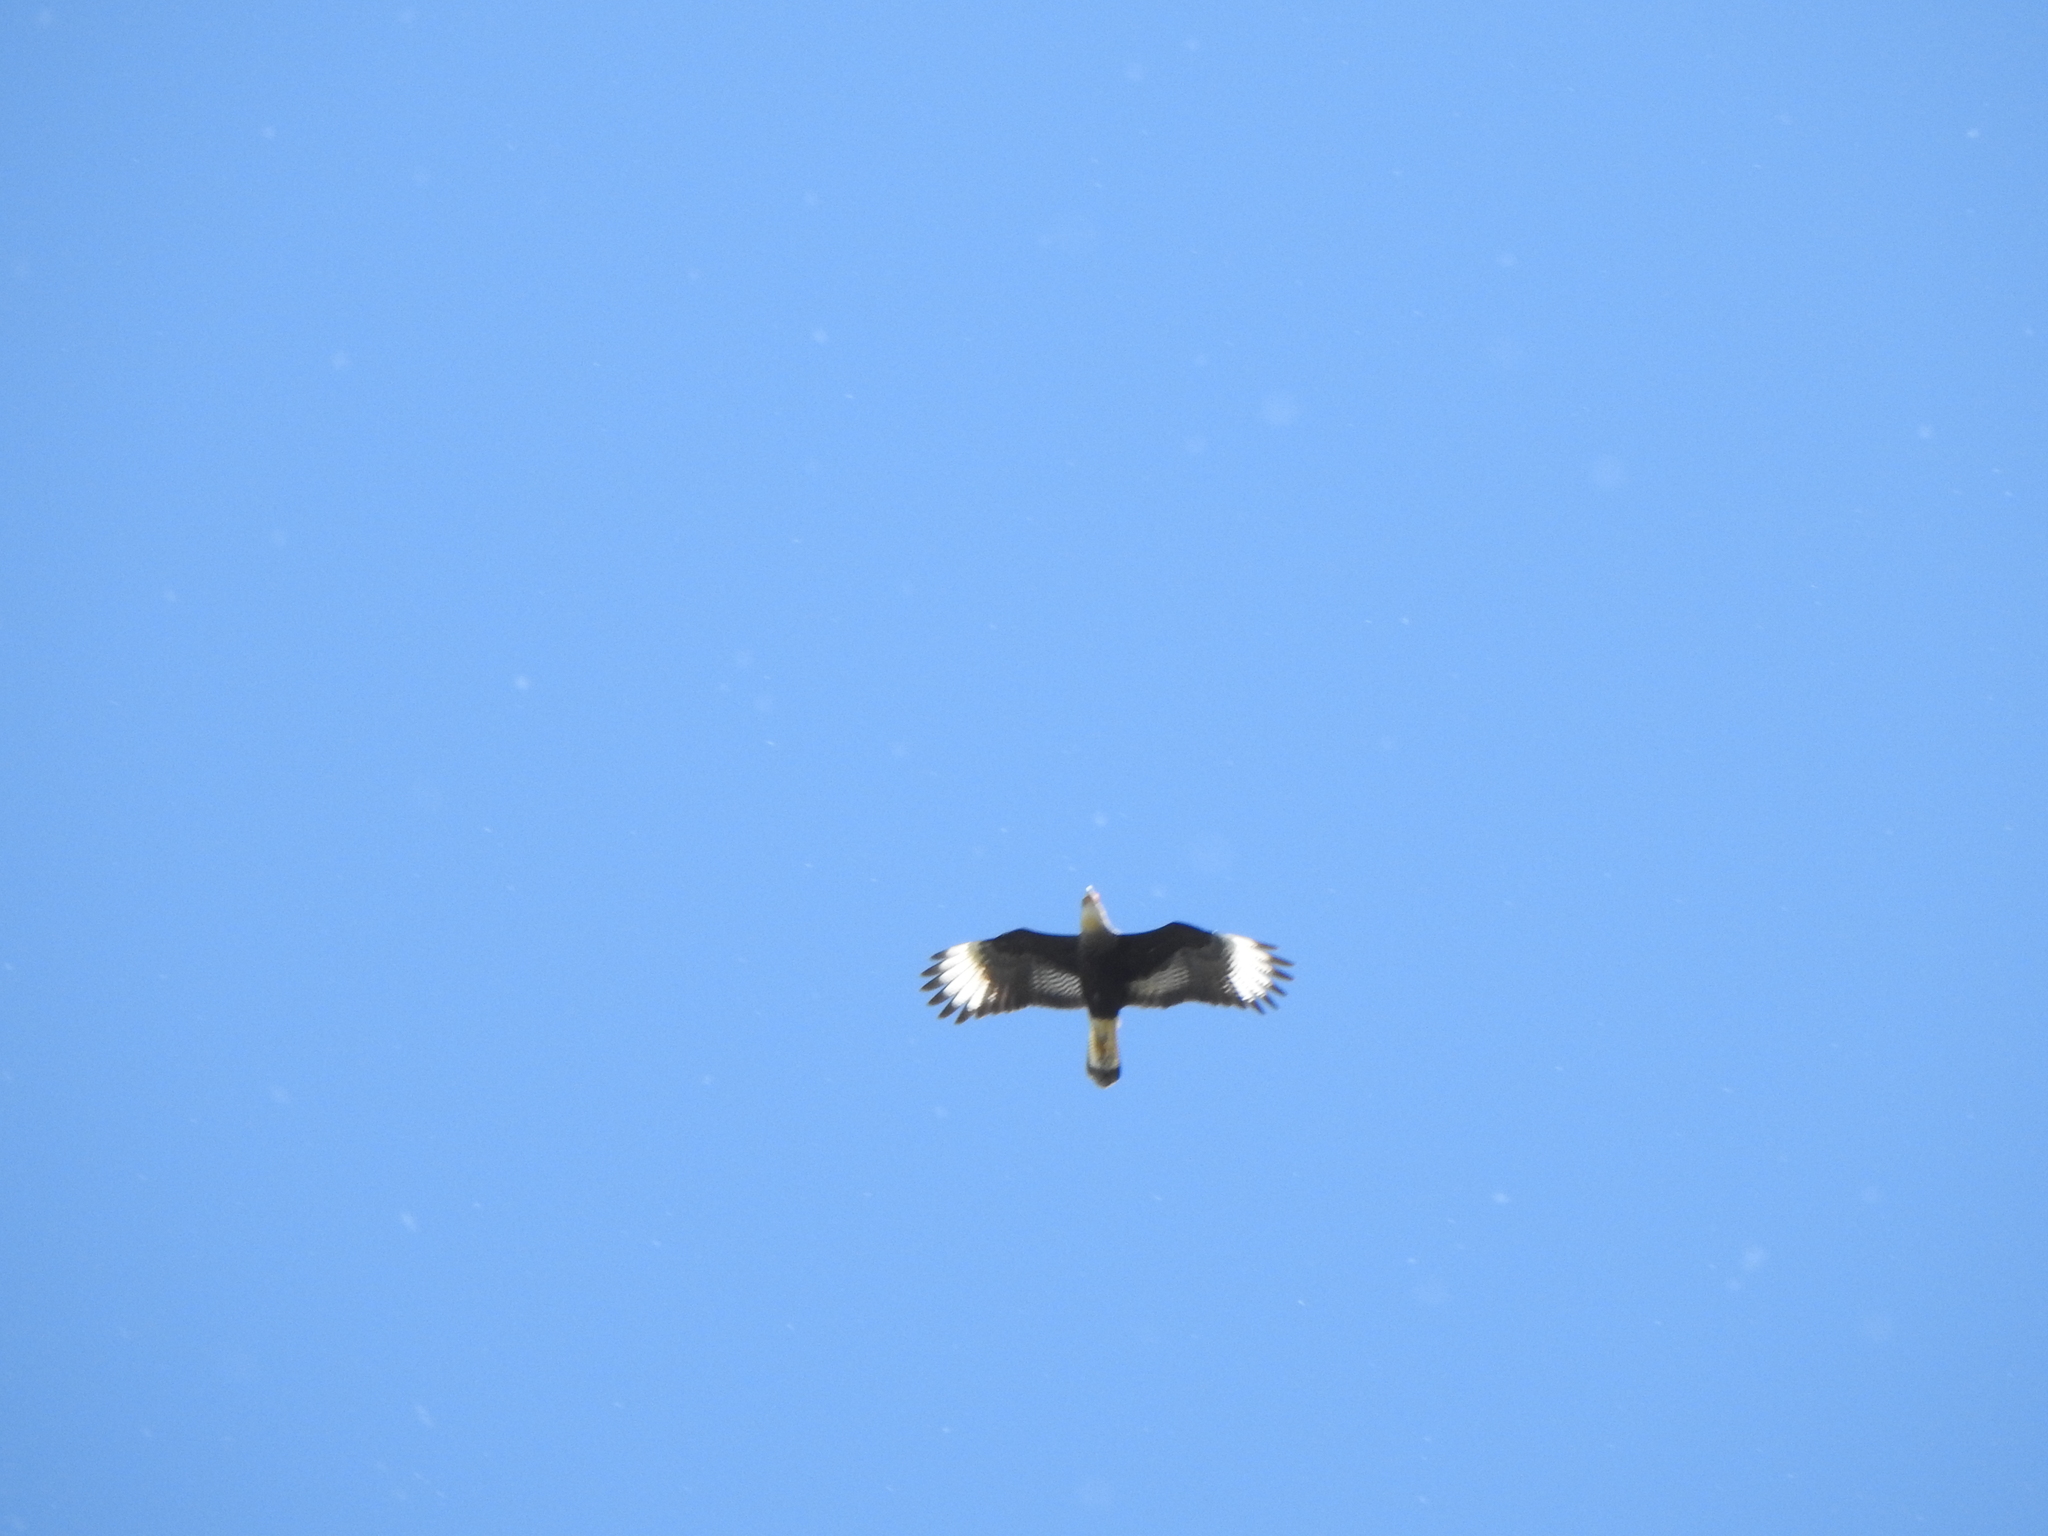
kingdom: Animalia
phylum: Chordata
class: Aves
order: Falconiformes
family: Falconidae
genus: Caracara
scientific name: Caracara plancus
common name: Southern caracara
